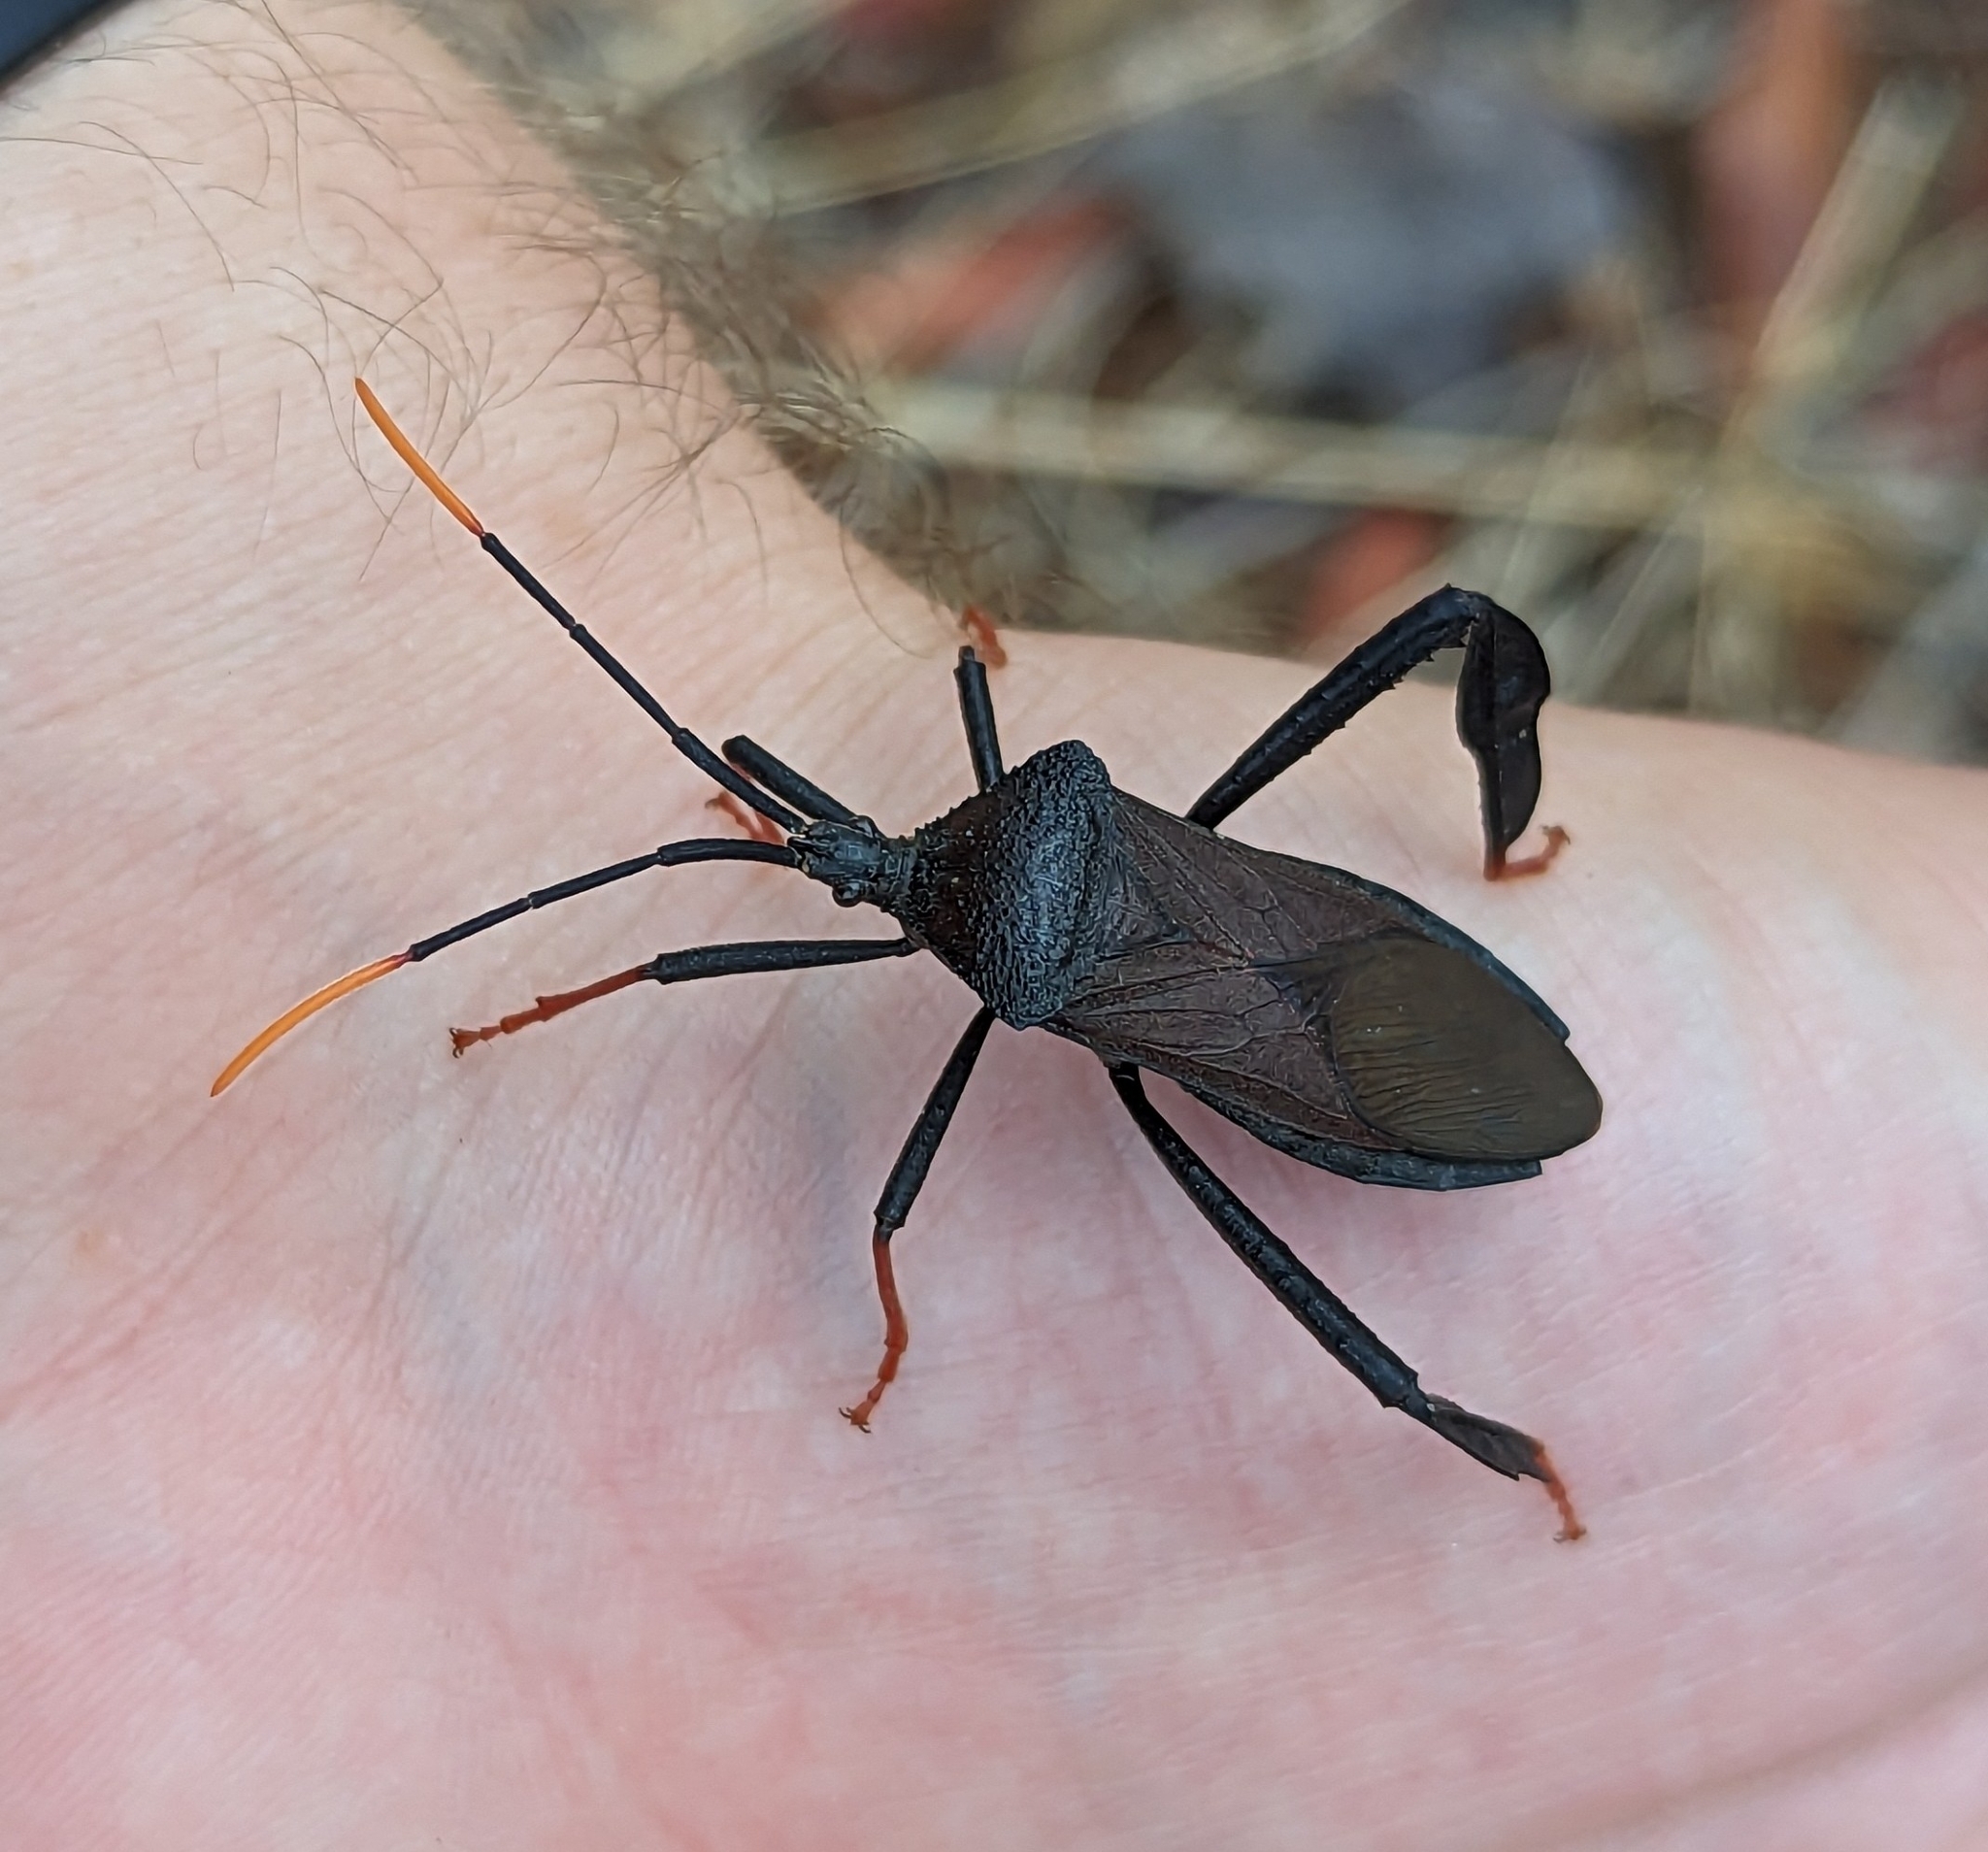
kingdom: Animalia
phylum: Arthropoda
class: Insecta
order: Hemiptera
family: Coreidae
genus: Acanthocephala
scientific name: Acanthocephala thomasi
